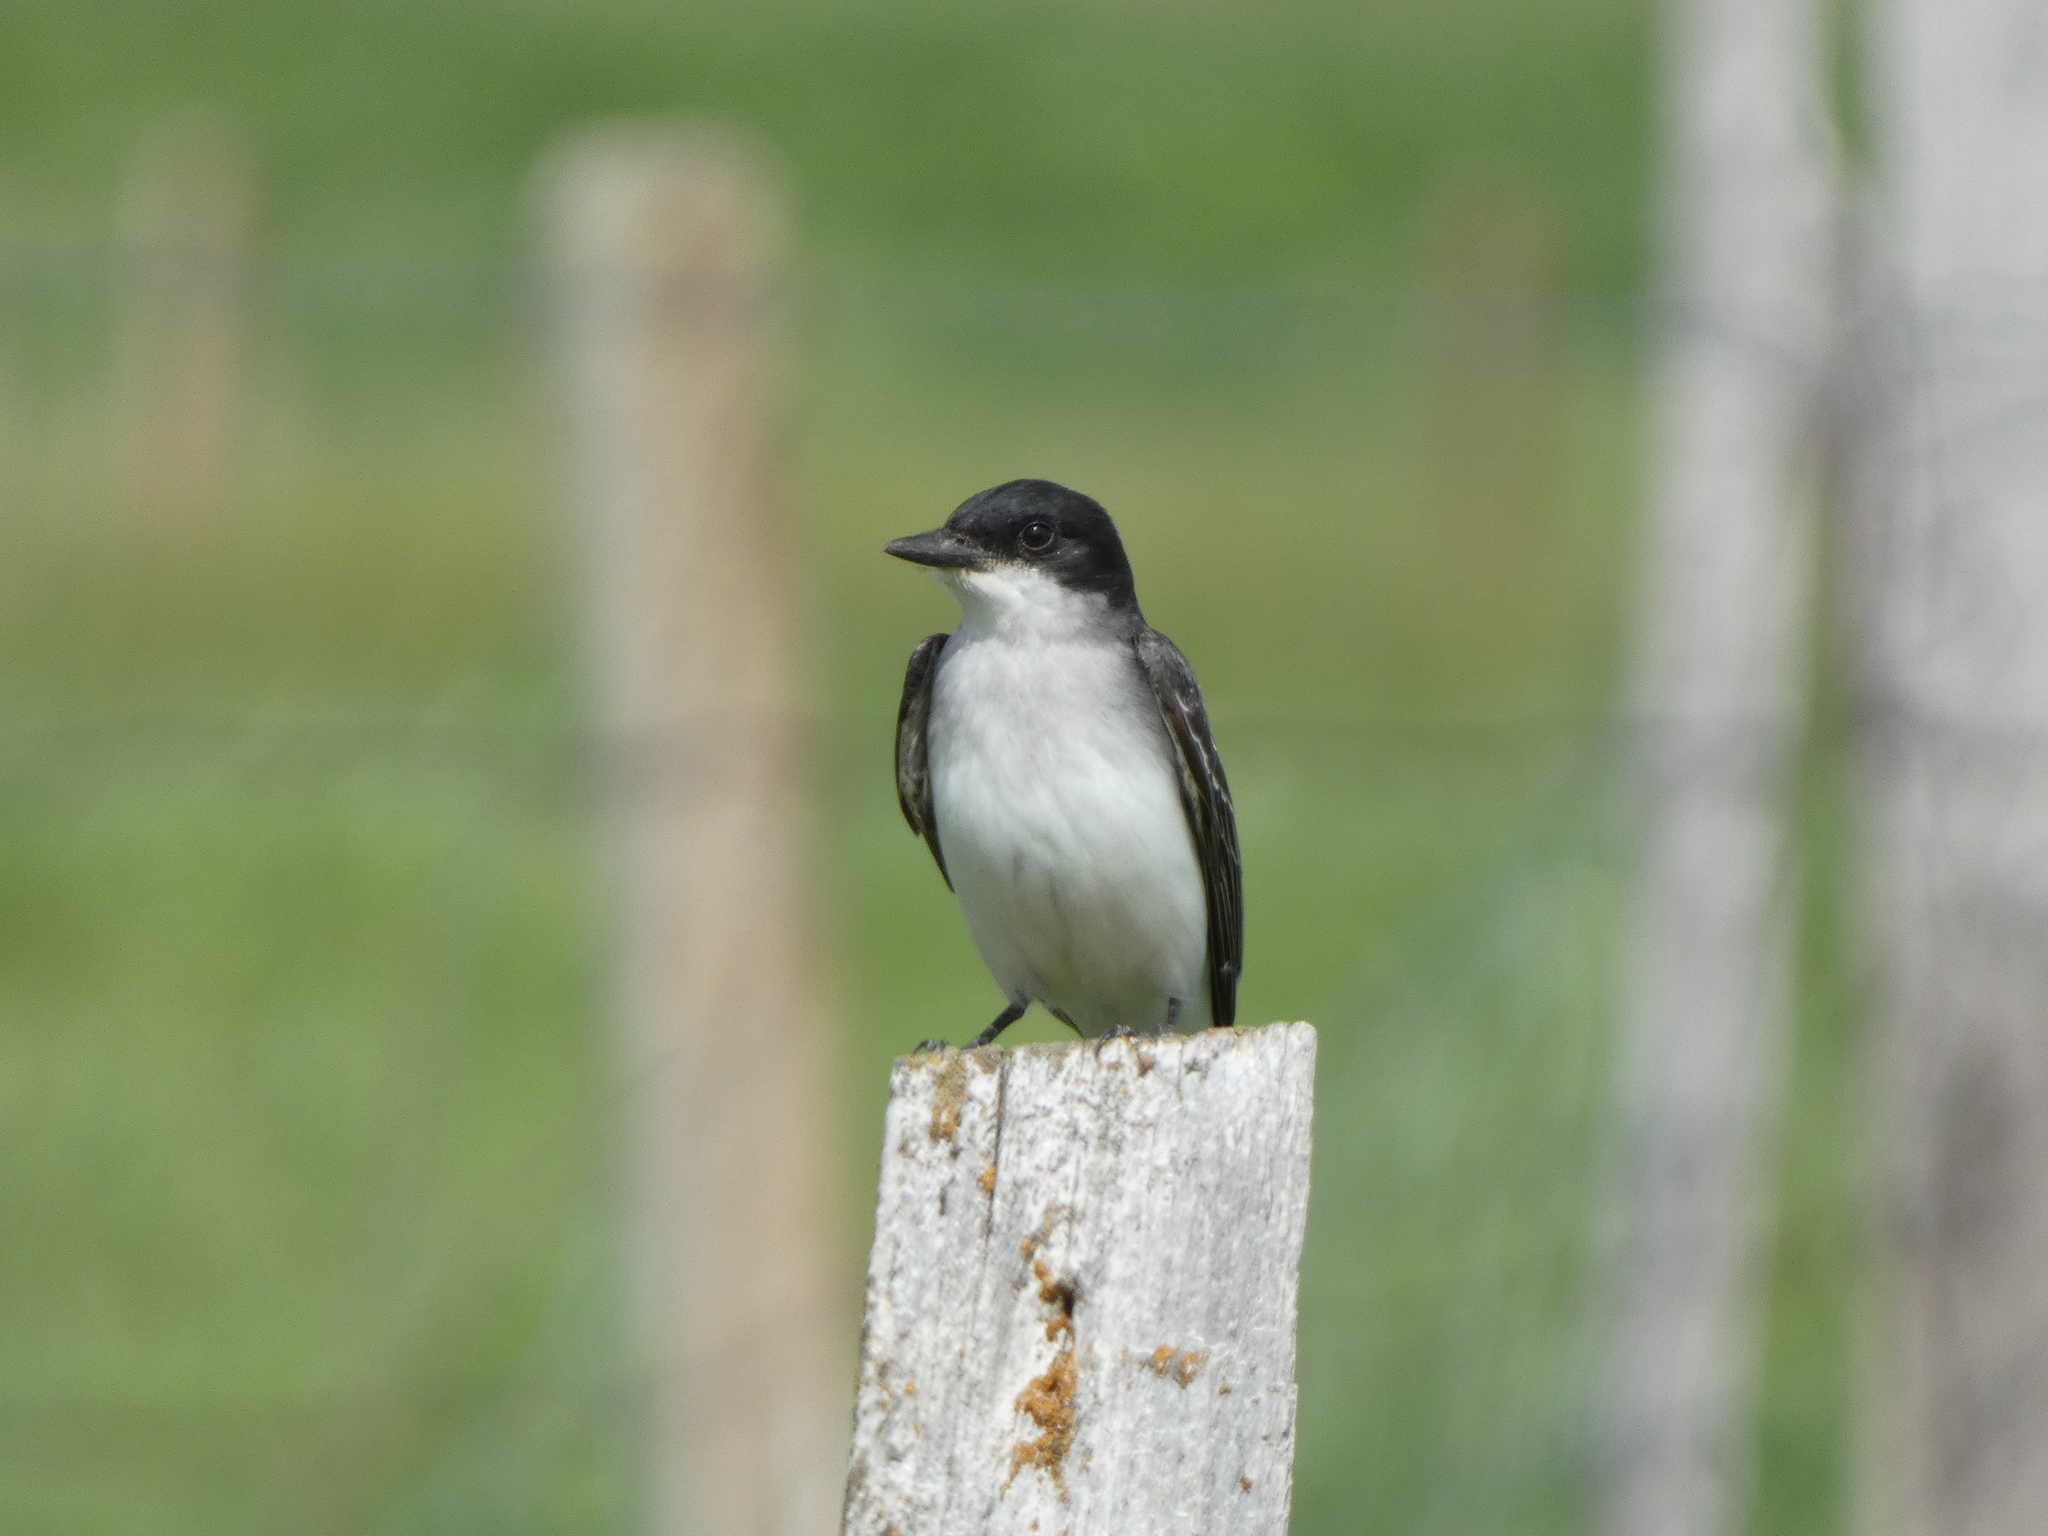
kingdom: Animalia
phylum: Chordata
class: Aves
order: Passeriformes
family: Tyrannidae
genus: Tyrannus
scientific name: Tyrannus tyrannus
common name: Eastern kingbird
